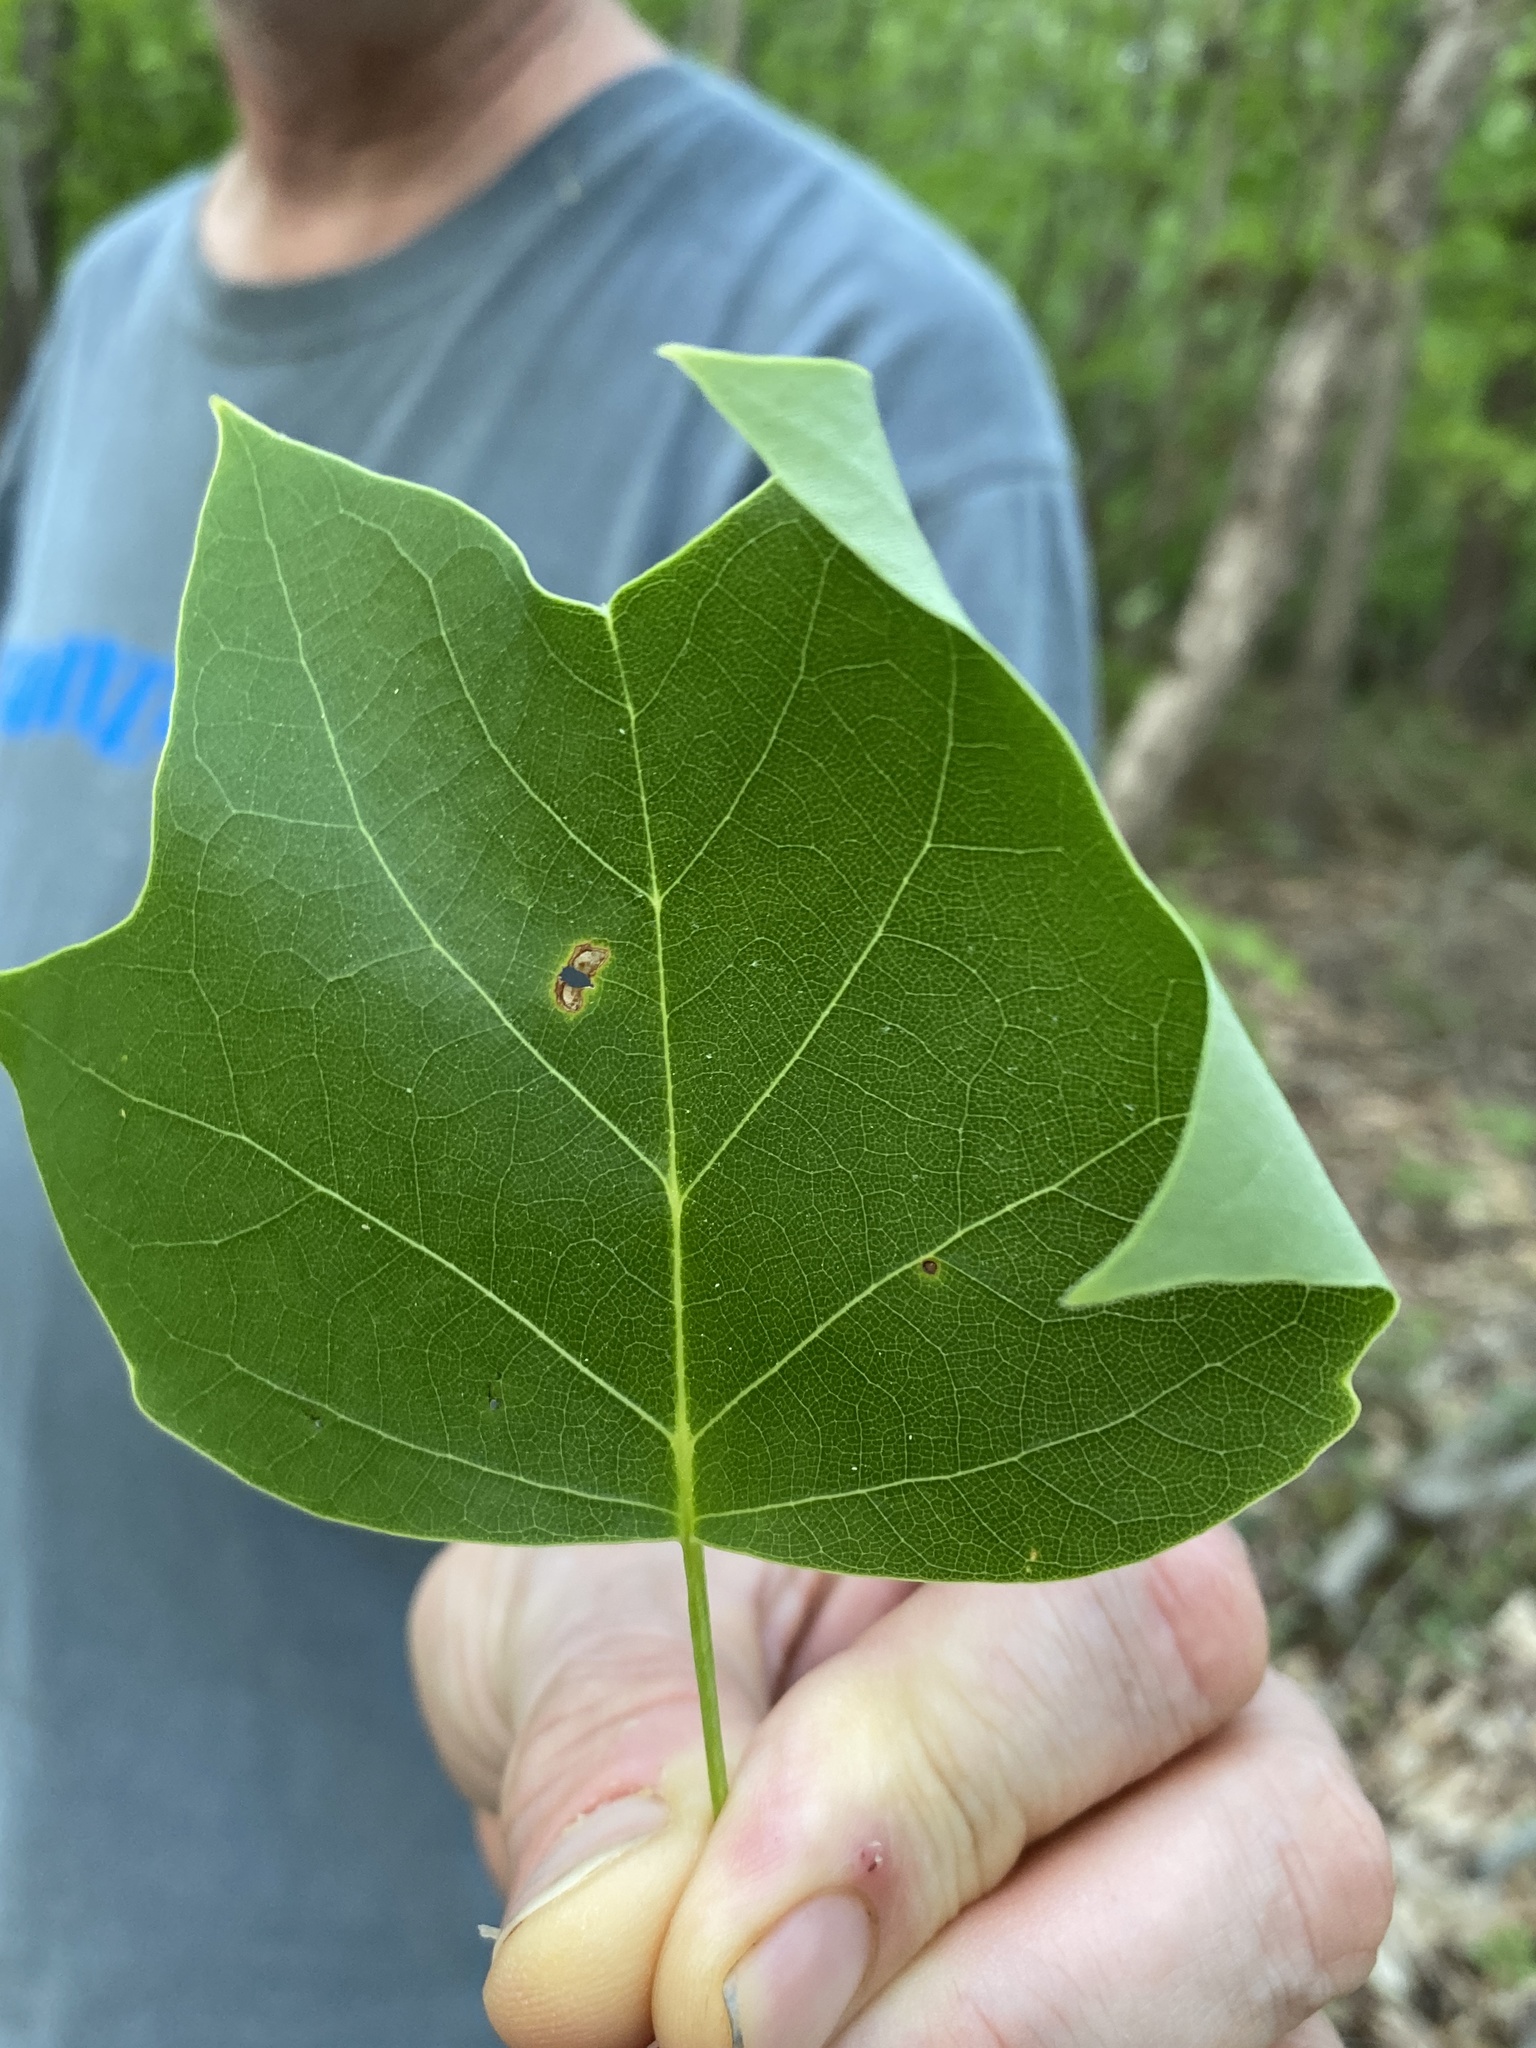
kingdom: Plantae
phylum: Tracheophyta
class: Magnoliopsida
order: Magnoliales
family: Magnoliaceae
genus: Liriodendron
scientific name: Liriodendron tulipifera
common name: Tulip tree
